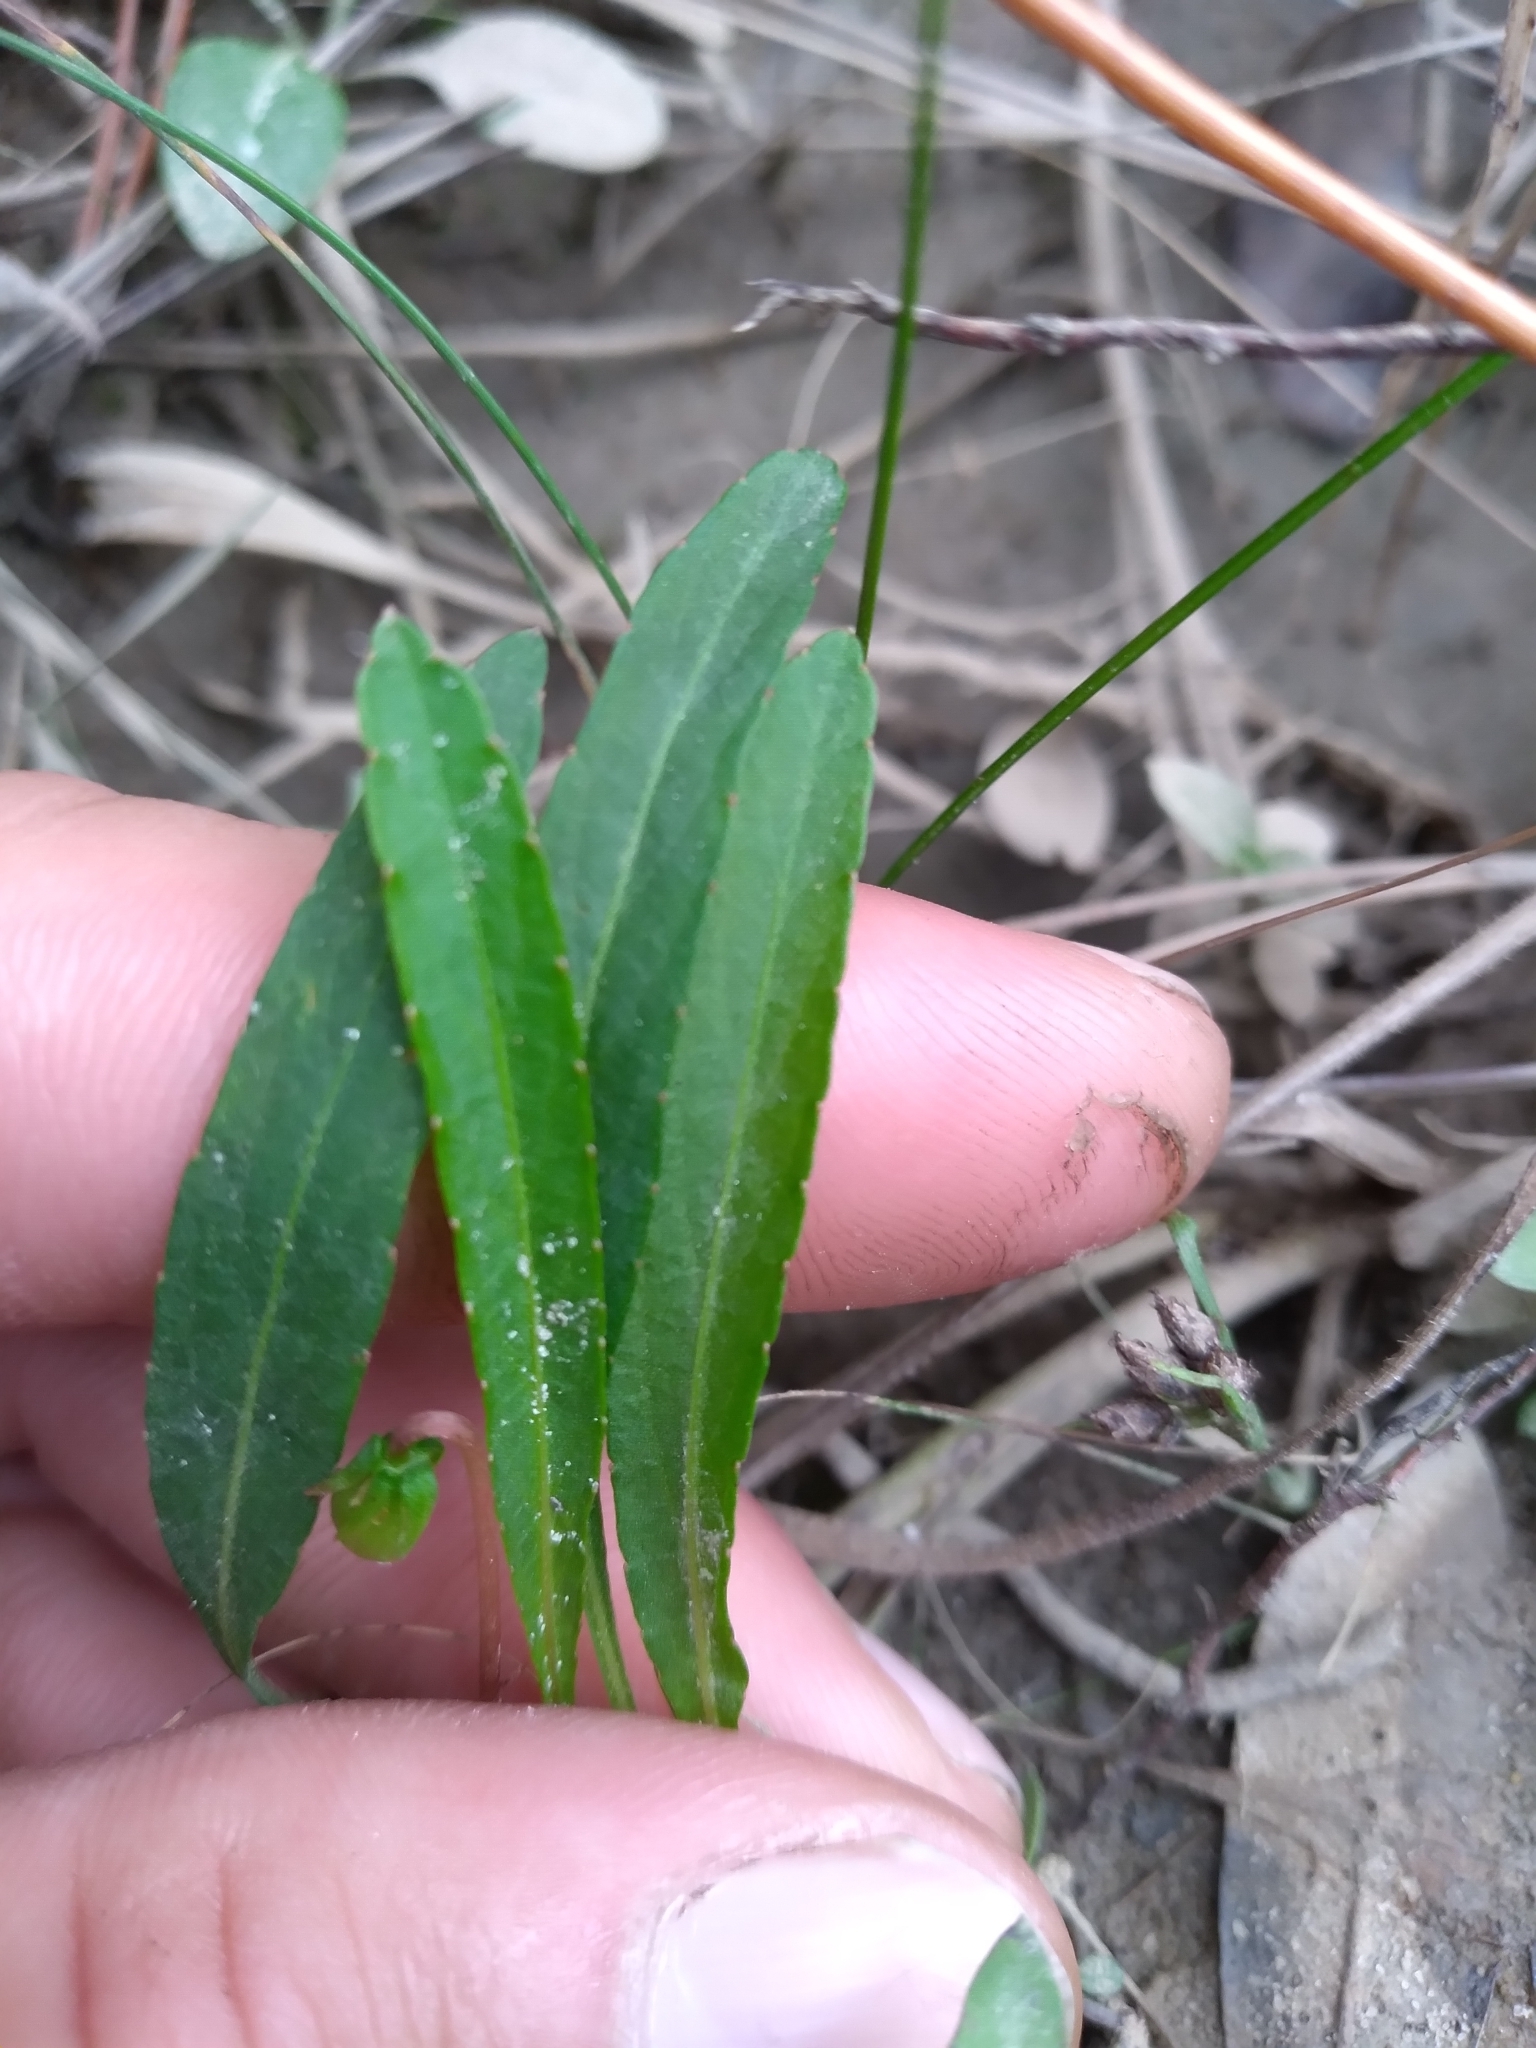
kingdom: Plantae
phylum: Tracheophyta
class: Magnoliopsida
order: Malpighiales
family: Violaceae
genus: Viola
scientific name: Viola lanceolata
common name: Bog white violet
